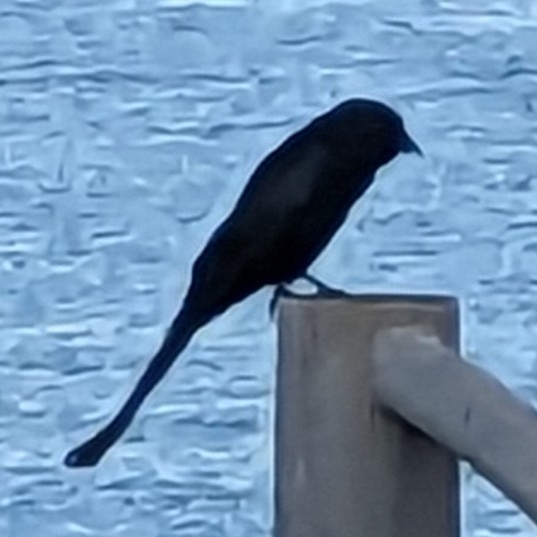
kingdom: Animalia
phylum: Chordata
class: Aves
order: Passeriformes
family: Dicruridae
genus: Dicrurus
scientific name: Dicrurus macrocercus
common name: Black drongo
